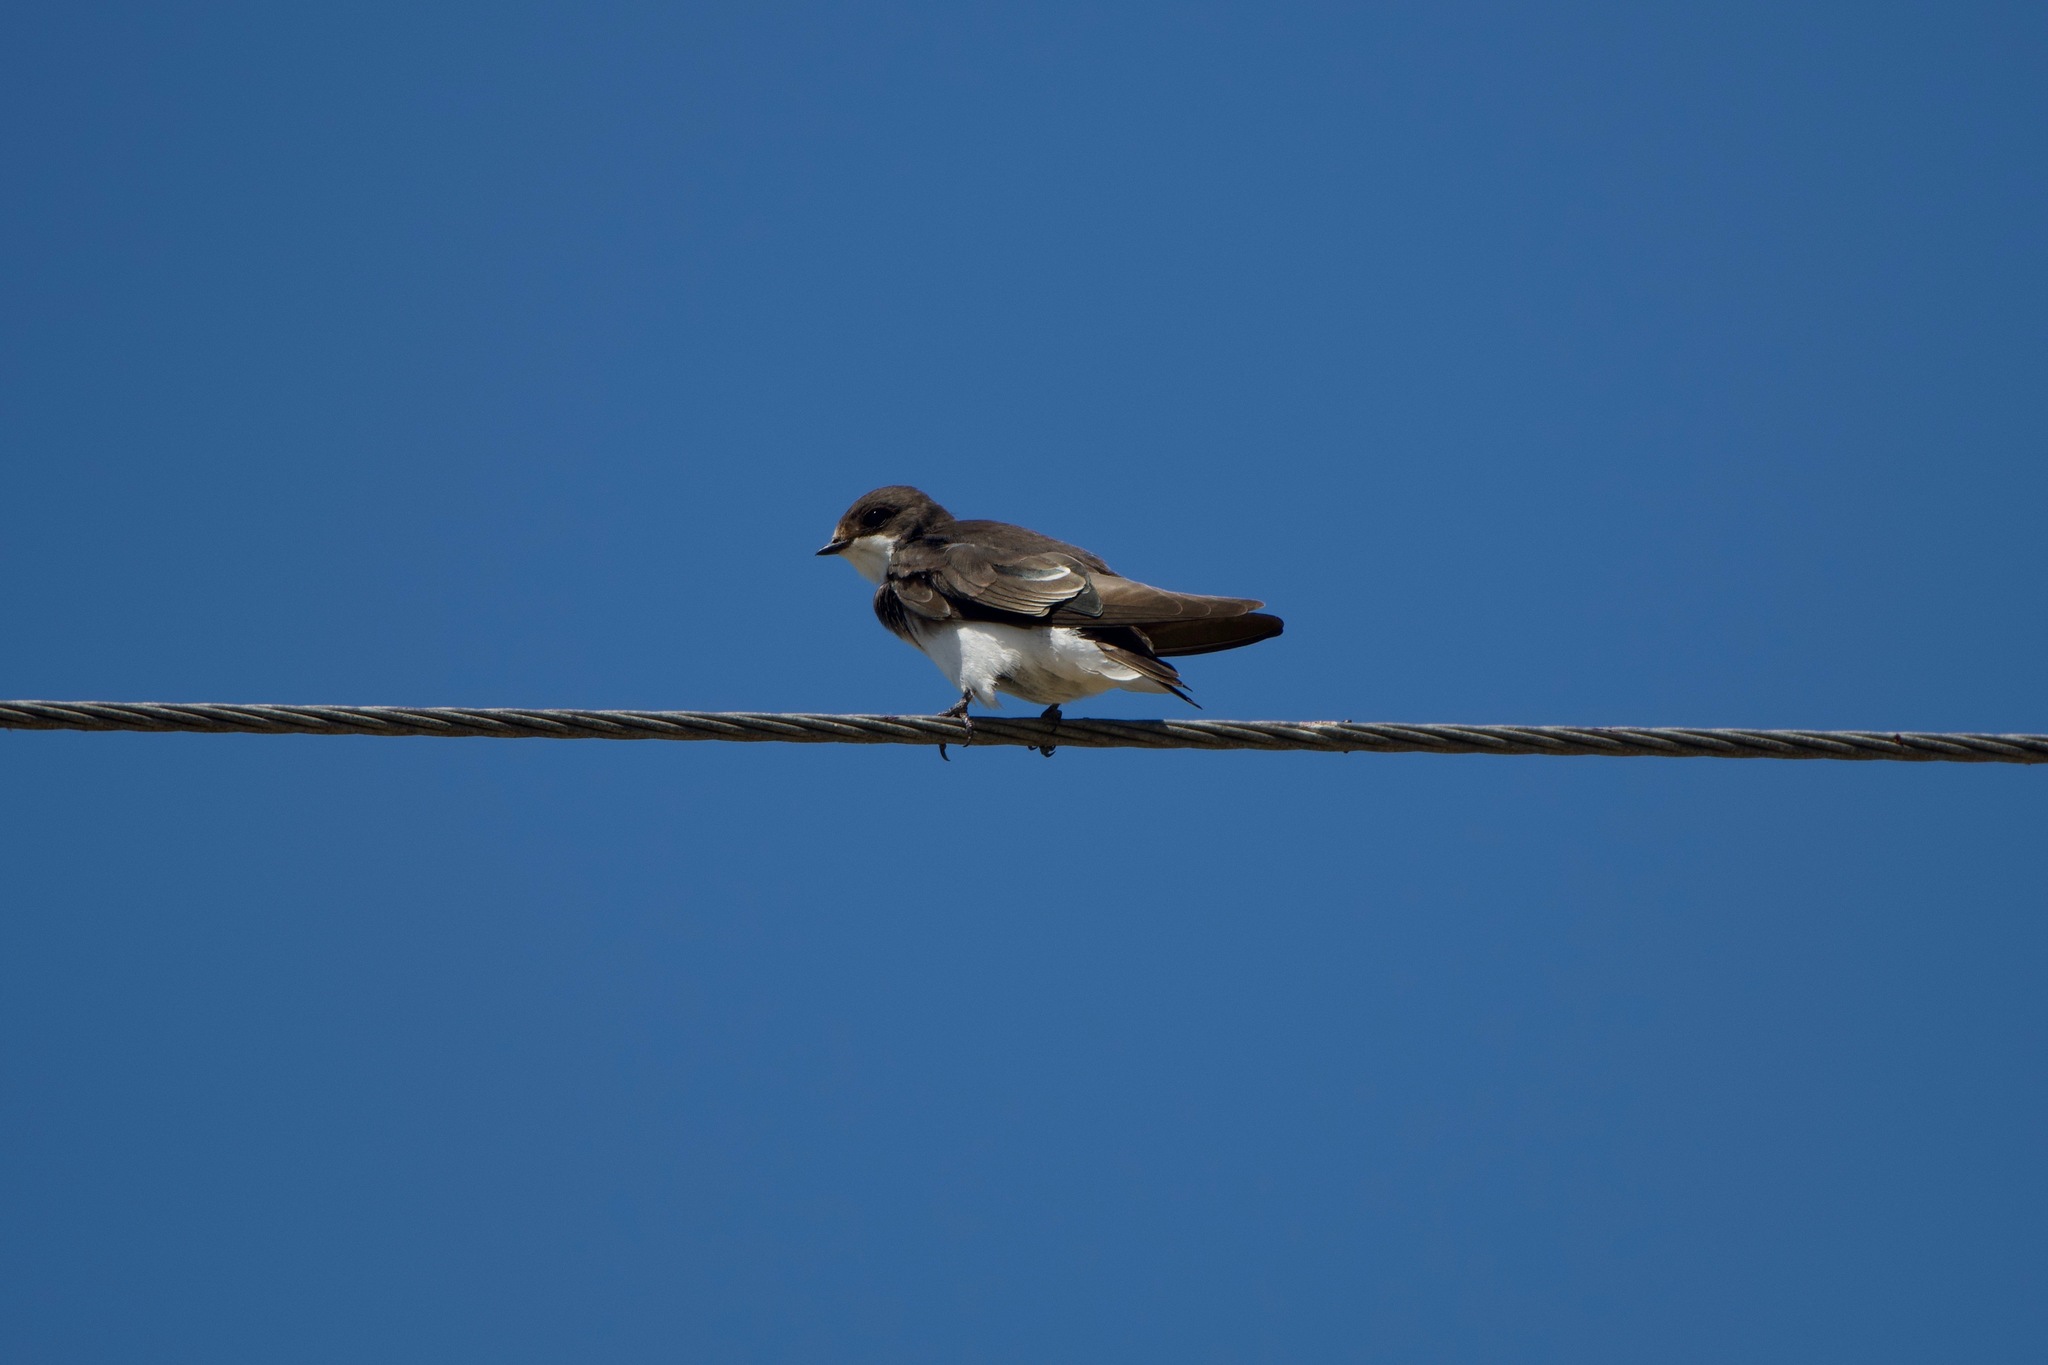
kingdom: Animalia
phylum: Chordata
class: Aves
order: Passeriformes
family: Hirundinidae
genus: Riparia
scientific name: Riparia riparia
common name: Sand martin
